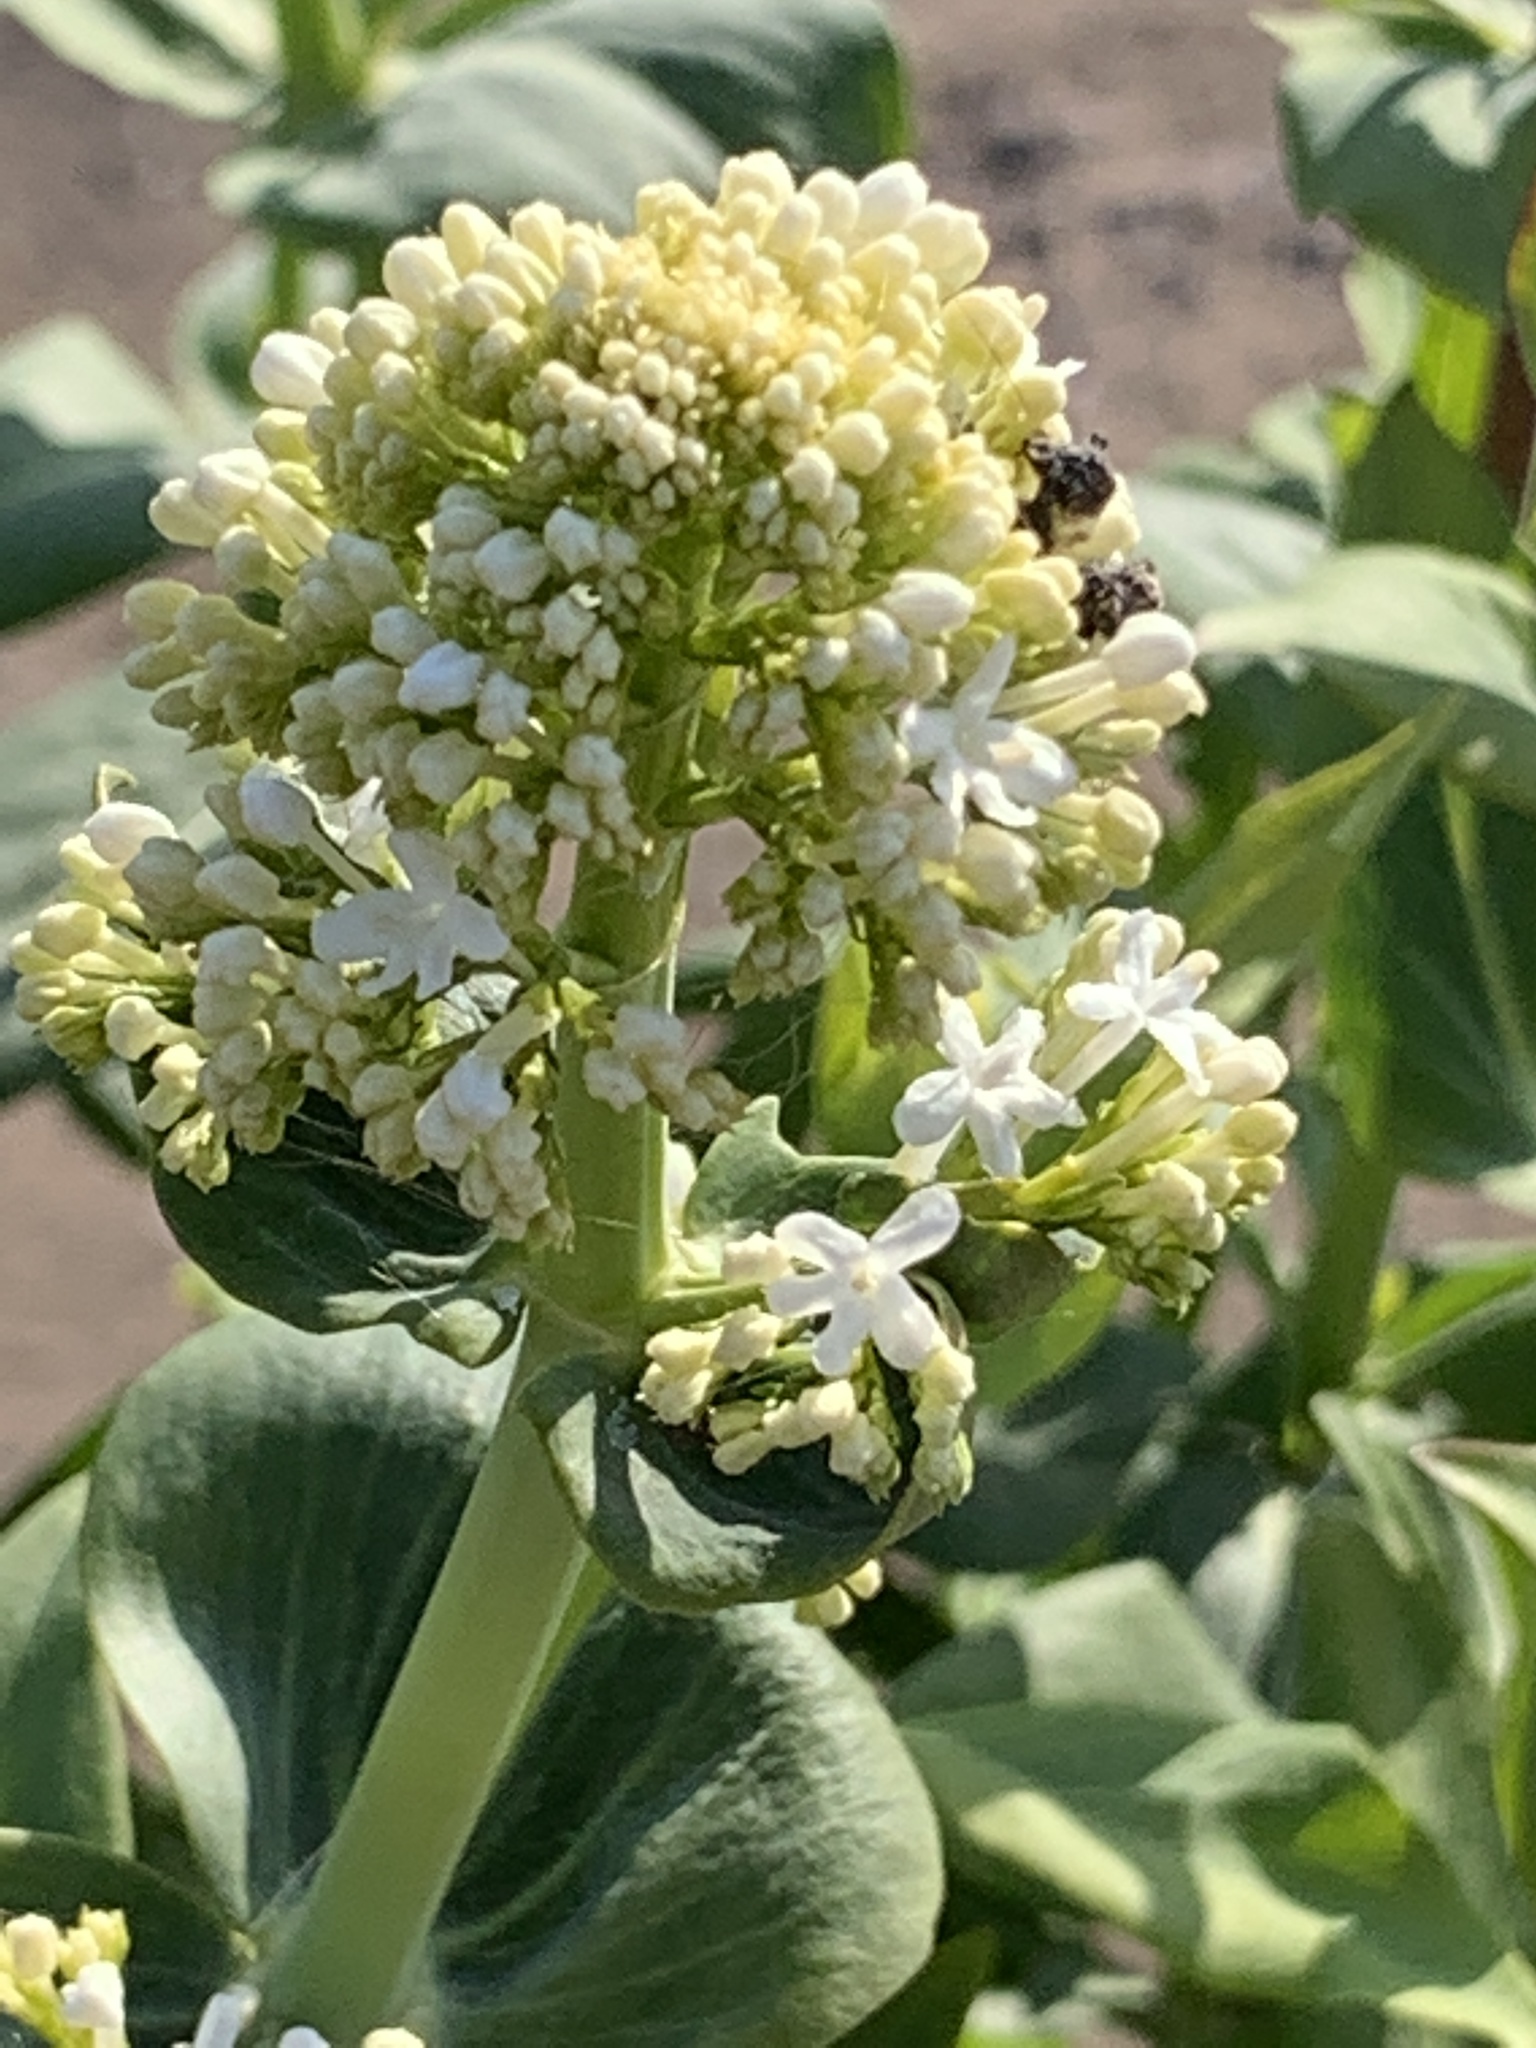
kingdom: Plantae
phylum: Tracheophyta
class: Magnoliopsida
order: Dipsacales
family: Caprifoliaceae
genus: Centranthus
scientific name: Centranthus ruber
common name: Red valerian
